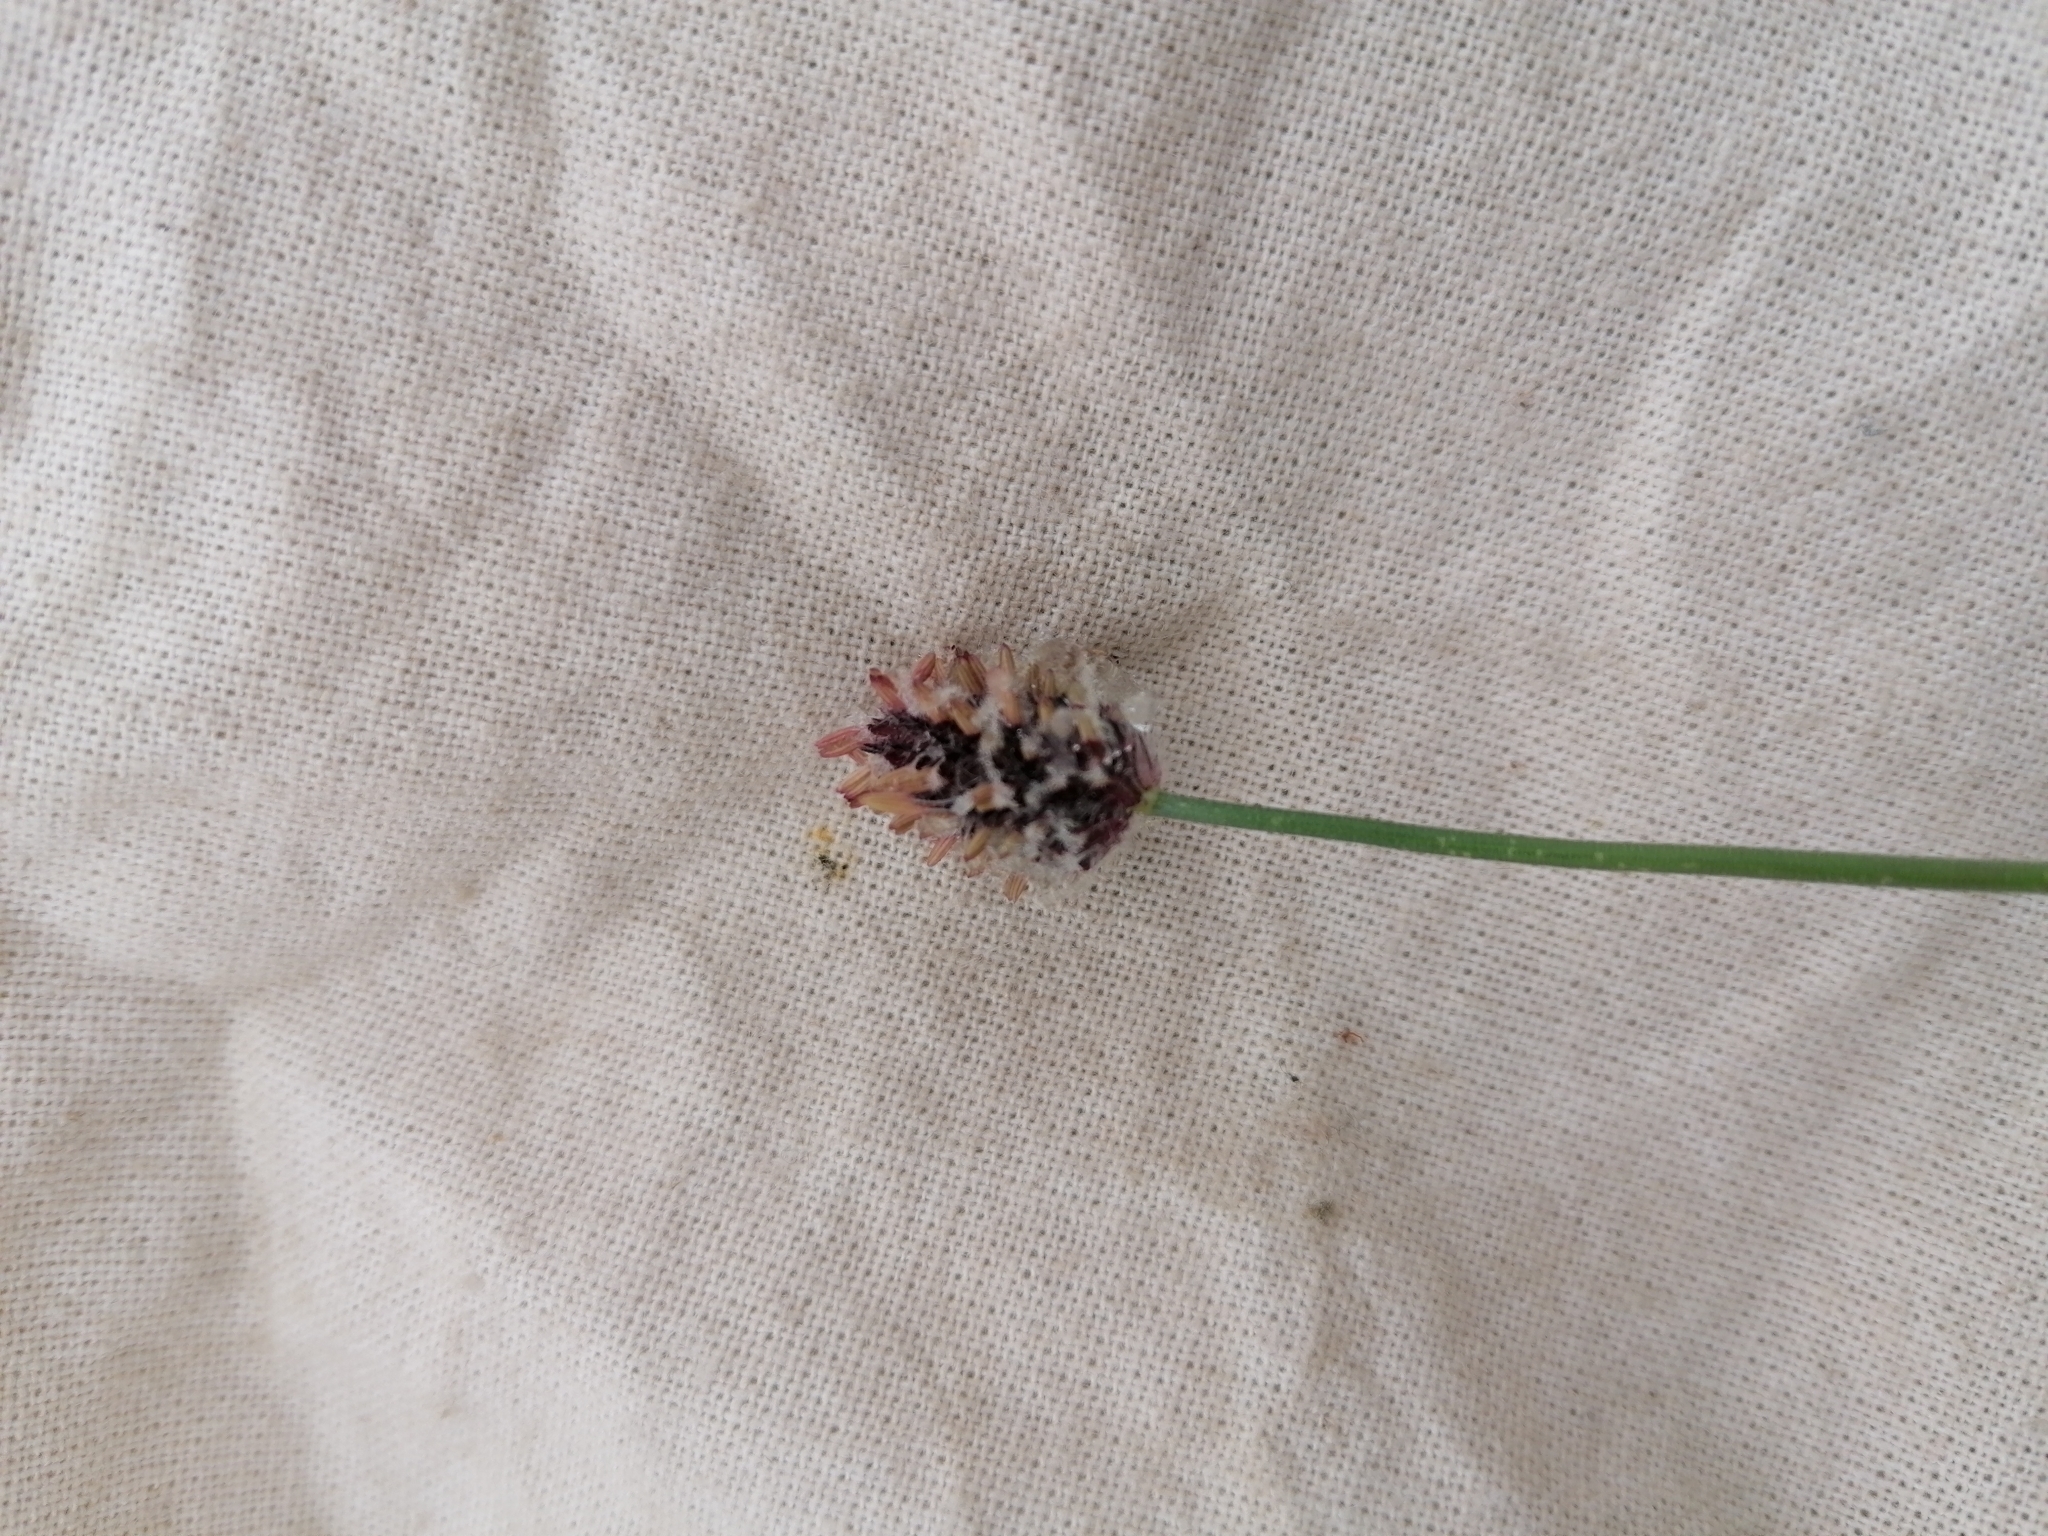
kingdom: Plantae
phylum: Tracheophyta
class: Liliopsida
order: Poales
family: Poaceae
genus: Alopecurus
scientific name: Alopecurus magellanicus
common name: Alpine foxtail
